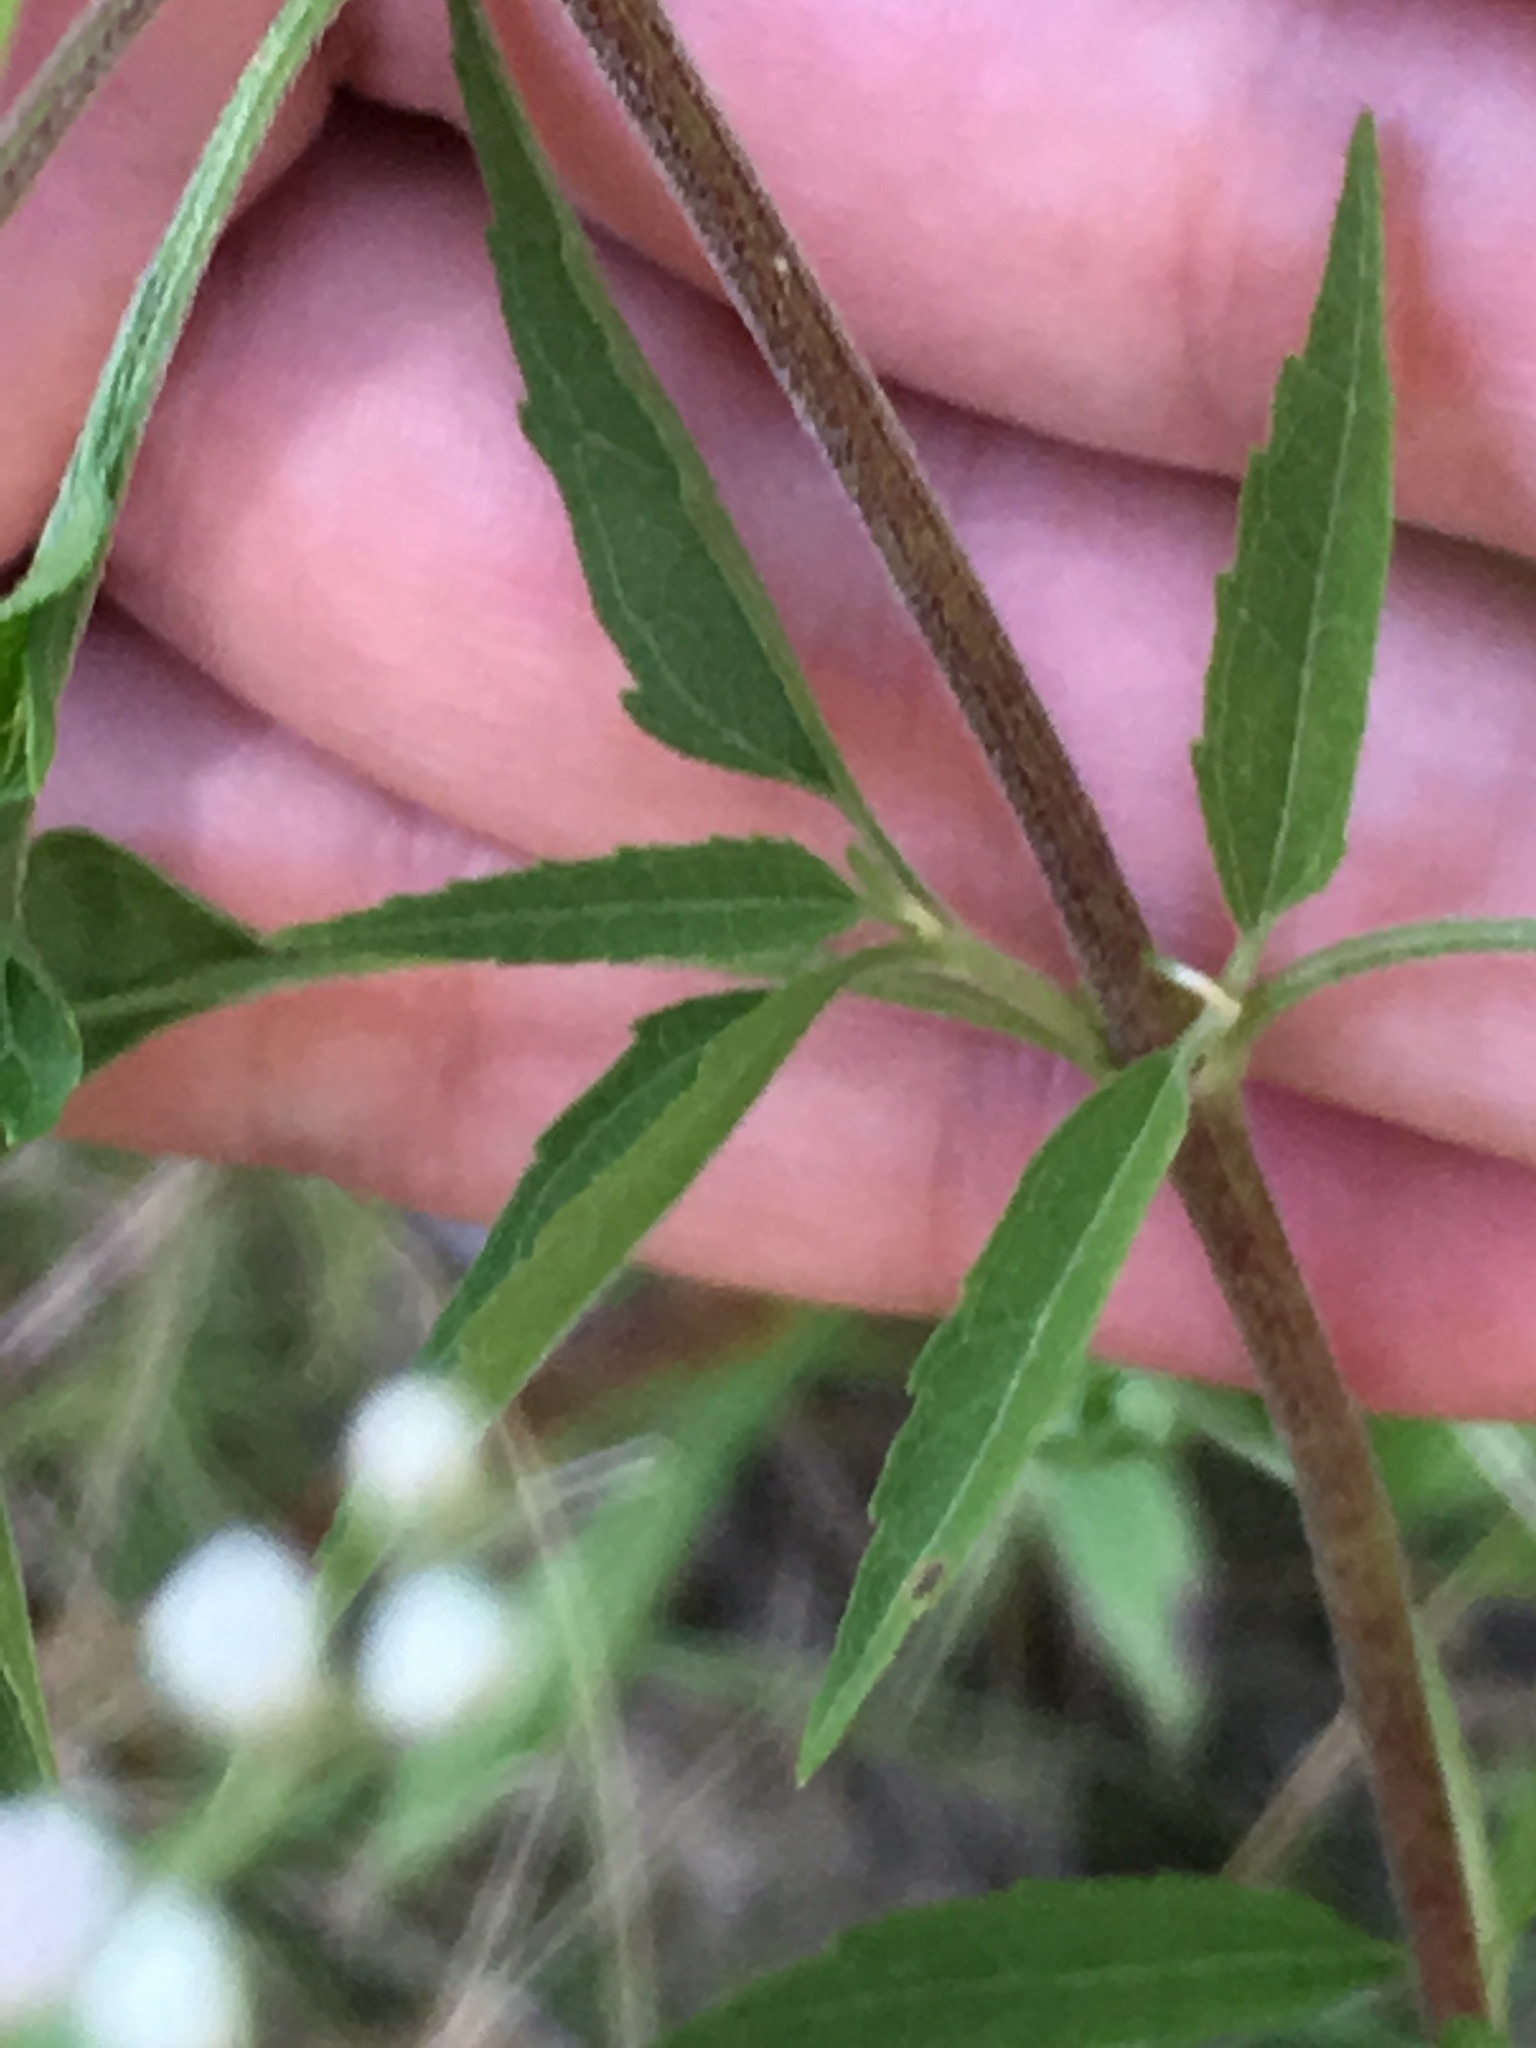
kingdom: Plantae
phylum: Tracheophyta
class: Magnoliopsida
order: Asterales
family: Asteraceae
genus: Eupatorium
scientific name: Eupatorium serotinum
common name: Late boneset
